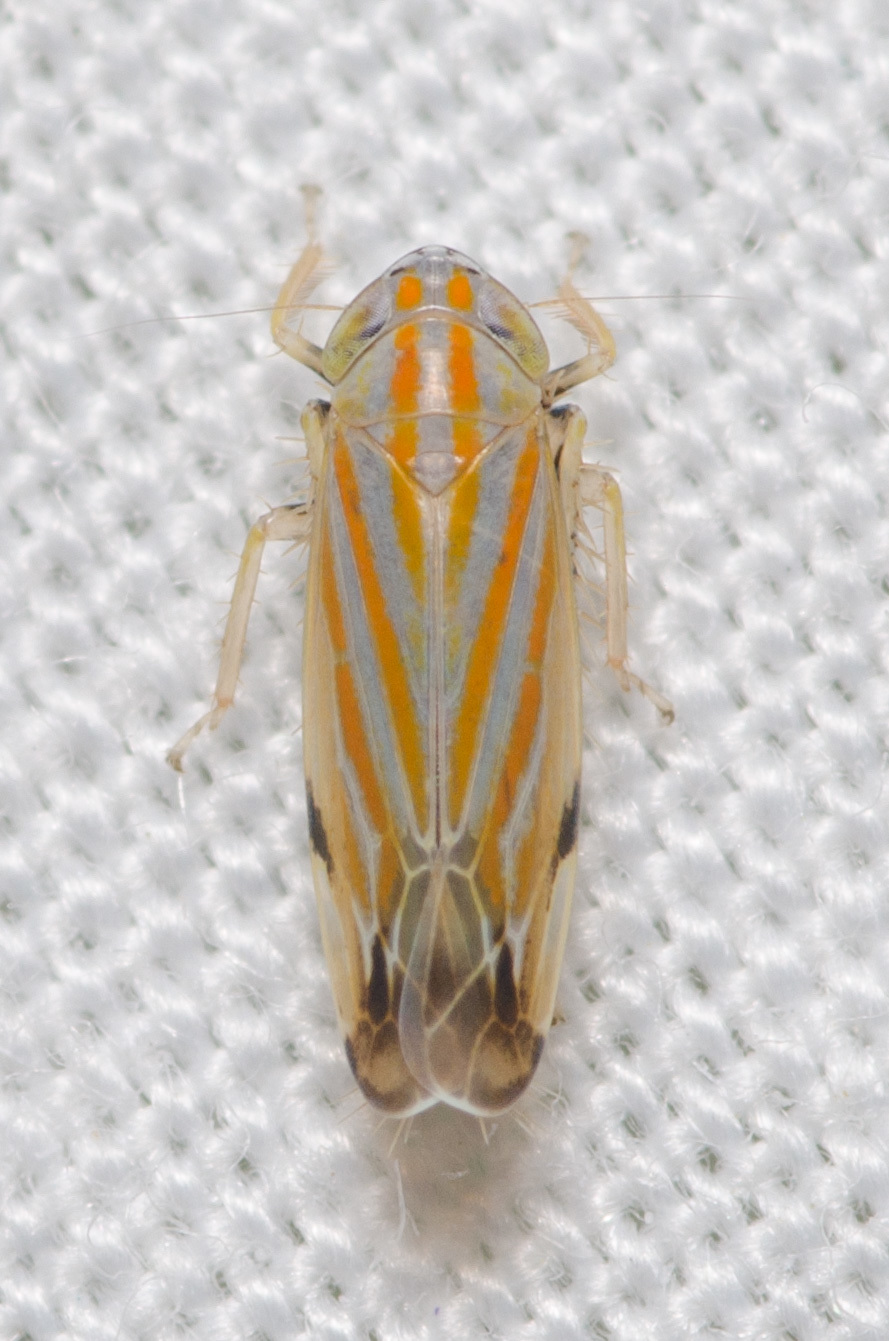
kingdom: Animalia
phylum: Arthropoda
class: Insecta
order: Hemiptera
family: Cicadellidae
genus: Deltanus
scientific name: Deltanus texanus
